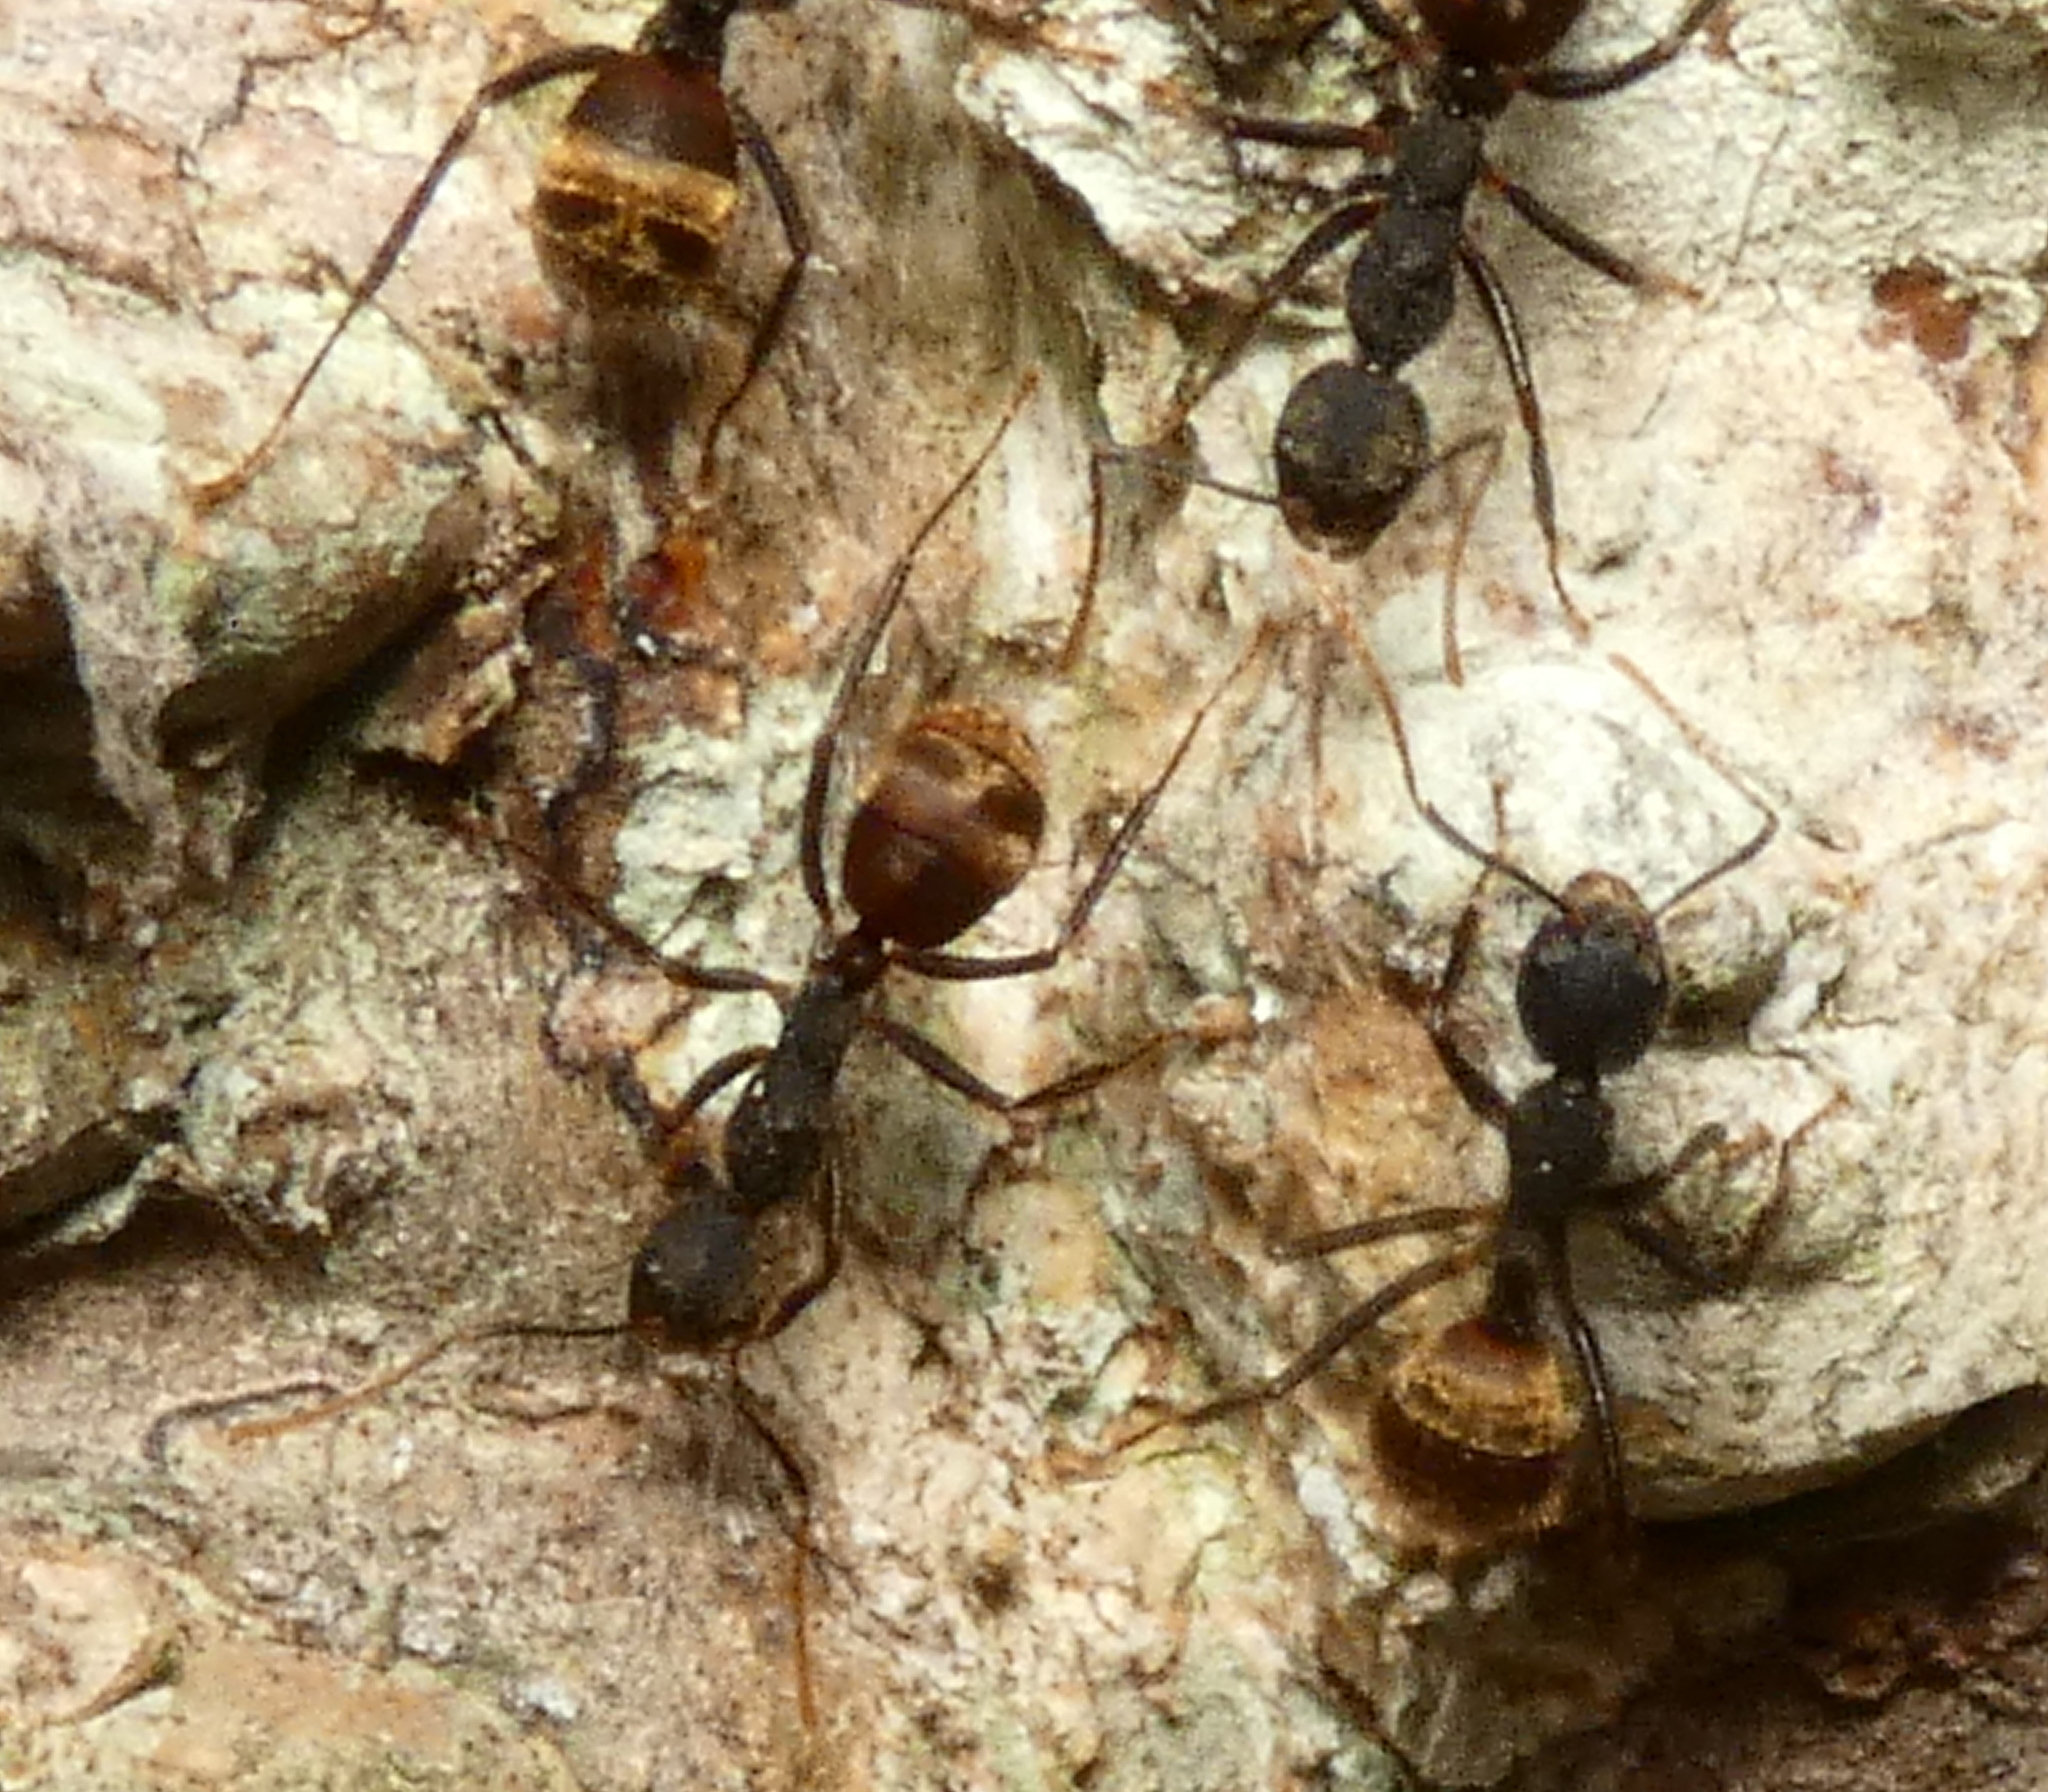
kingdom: Animalia
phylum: Arthropoda
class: Insecta
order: Hymenoptera
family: Formicidae
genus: Dolichoderus
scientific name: Dolichoderus bidens
